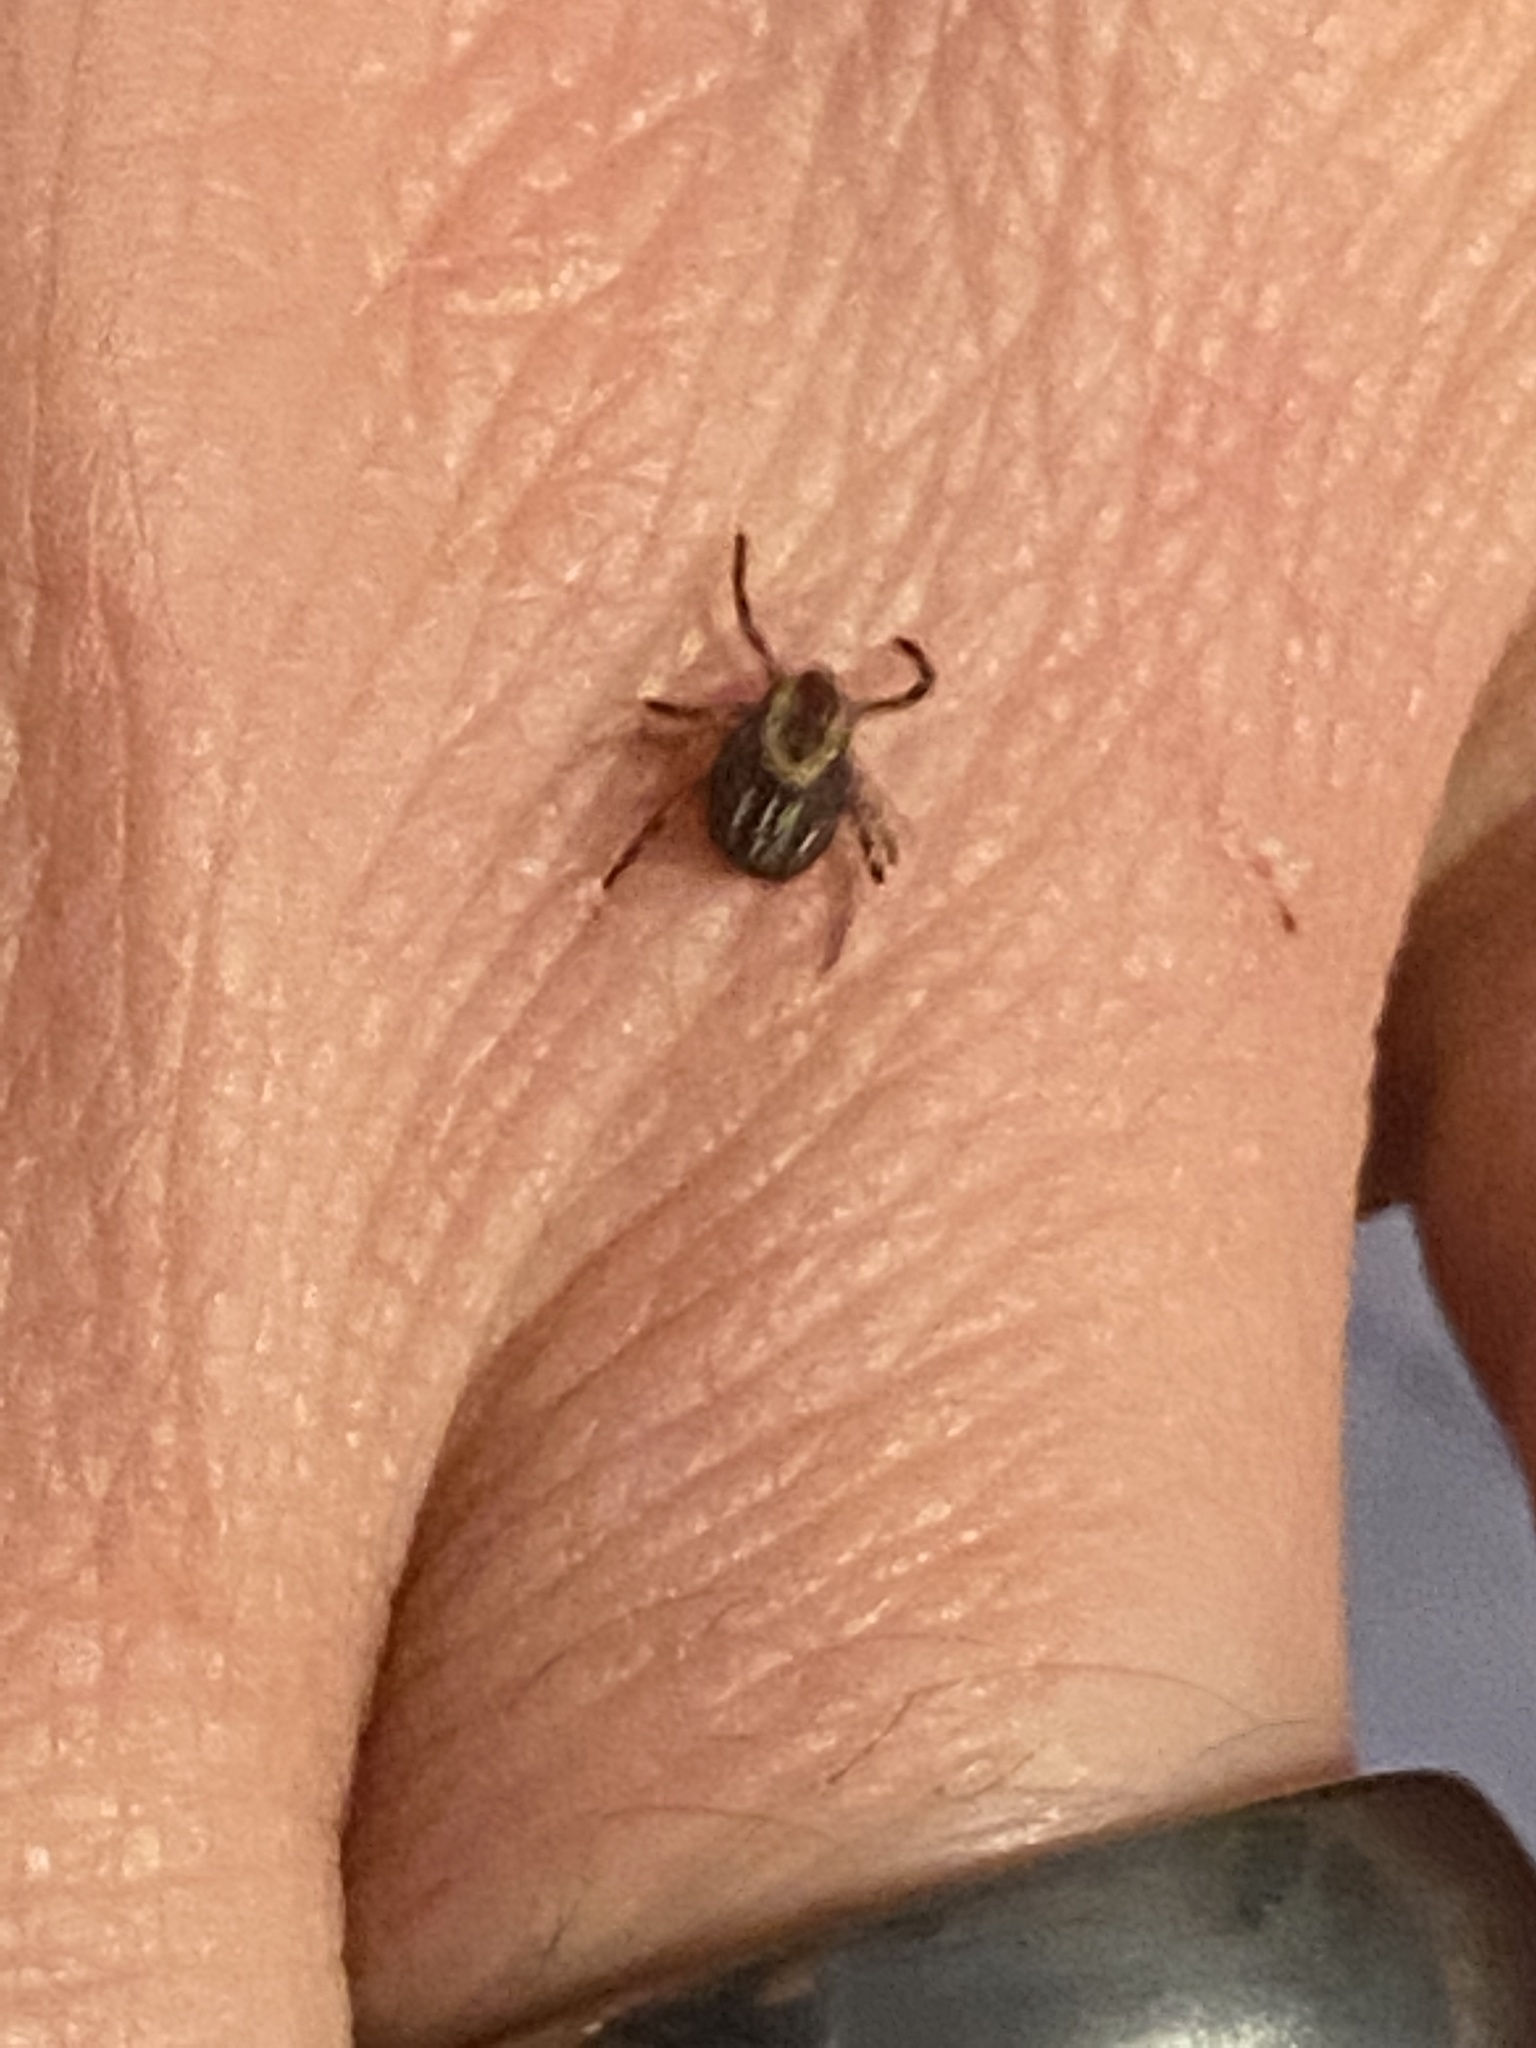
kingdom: Animalia
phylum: Arthropoda
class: Arachnida
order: Ixodida
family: Ixodidae
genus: Dermacentor
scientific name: Dermacentor variabilis
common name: American dog tick
